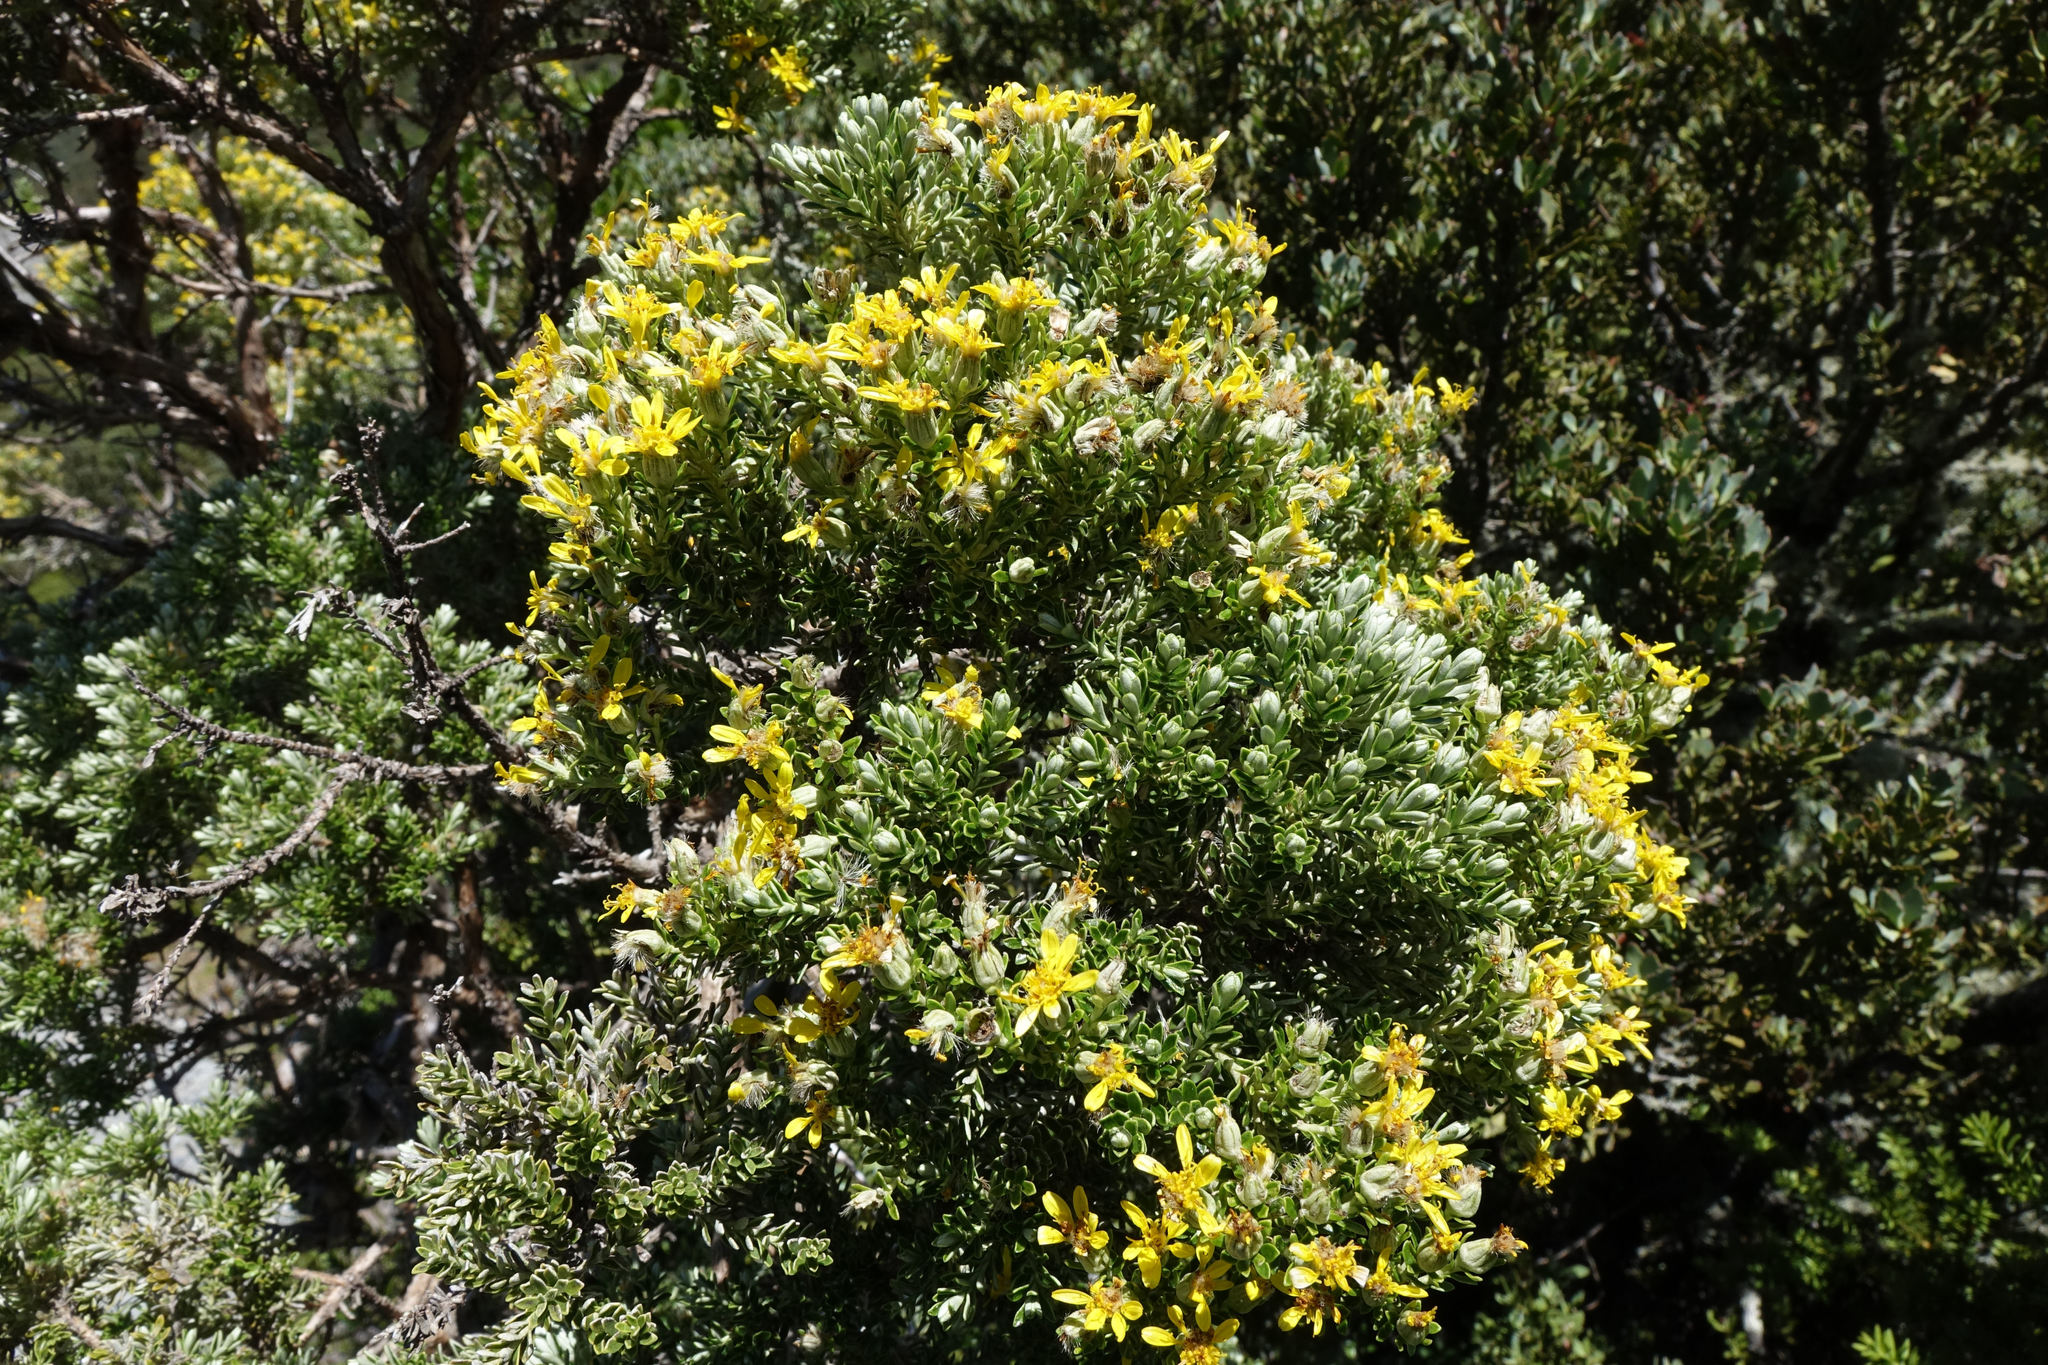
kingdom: Plantae
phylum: Tracheophyta
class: Magnoliopsida
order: Asterales
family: Asteraceae
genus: Brachyglottis
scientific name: Brachyglottis cassinioides
